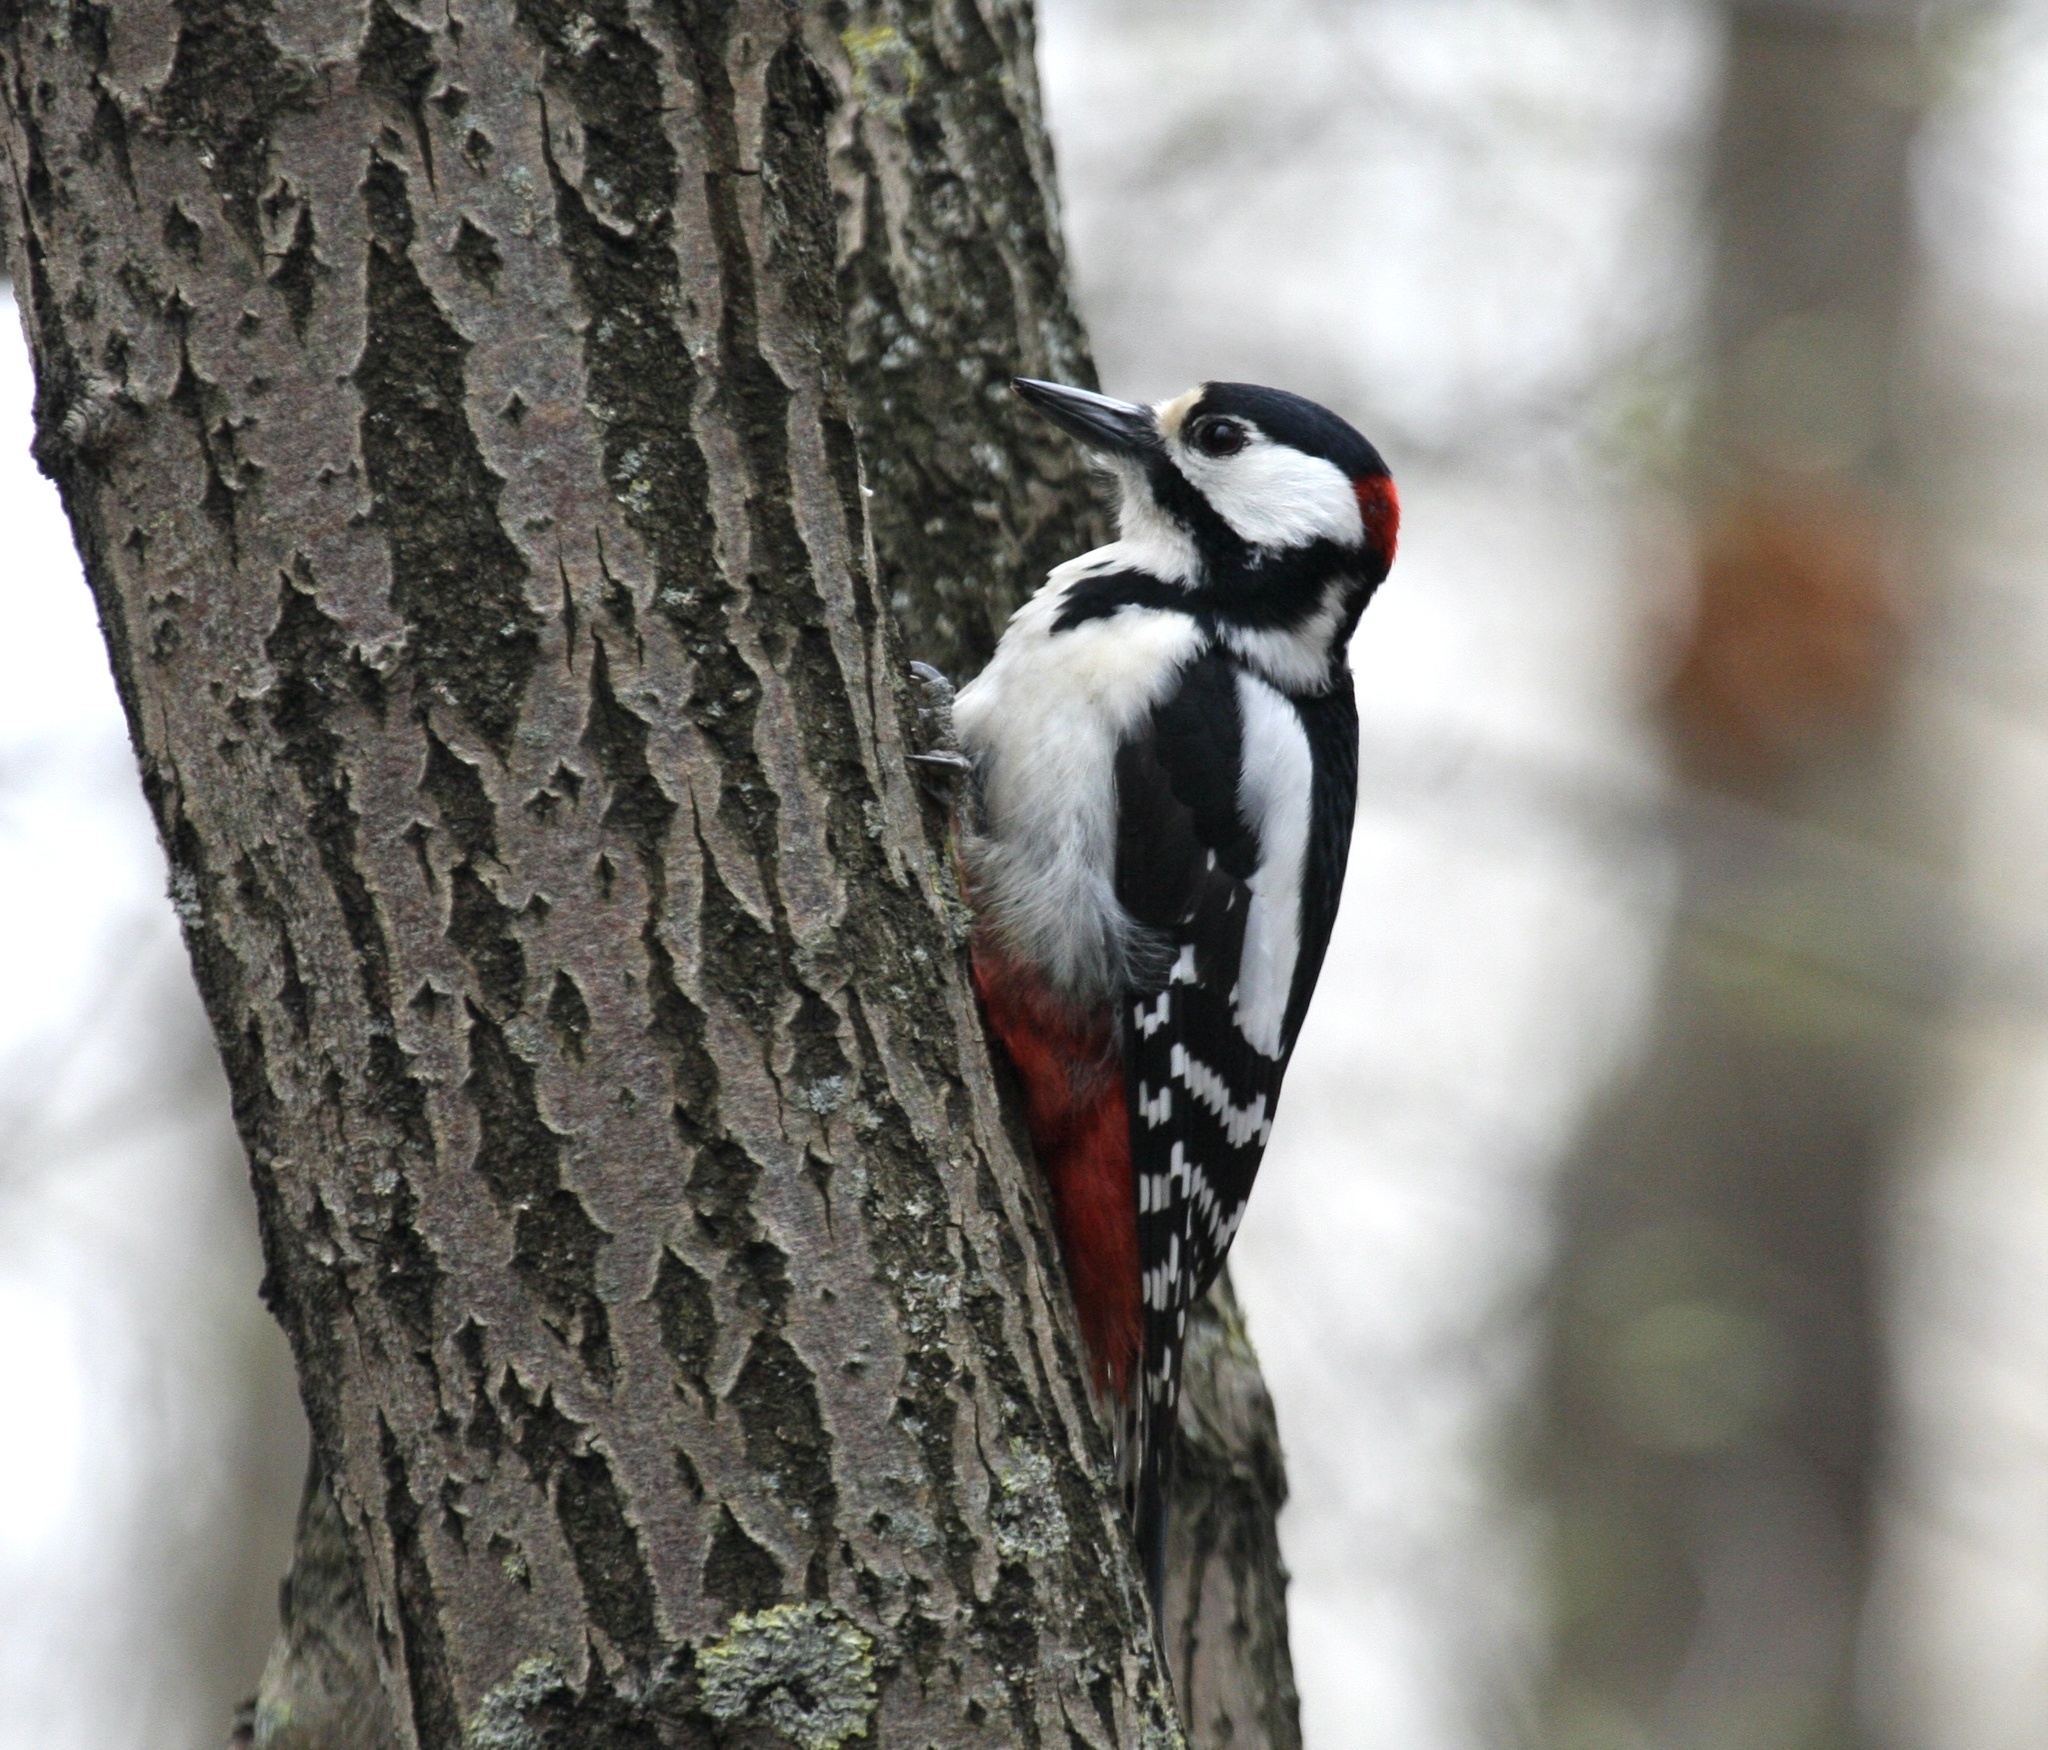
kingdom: Animalia
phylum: Chordata
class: Aves
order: Piciformes
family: Picidae
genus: Dendrocopos
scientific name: Dendrocopos major
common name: Great spotted woodpecker
